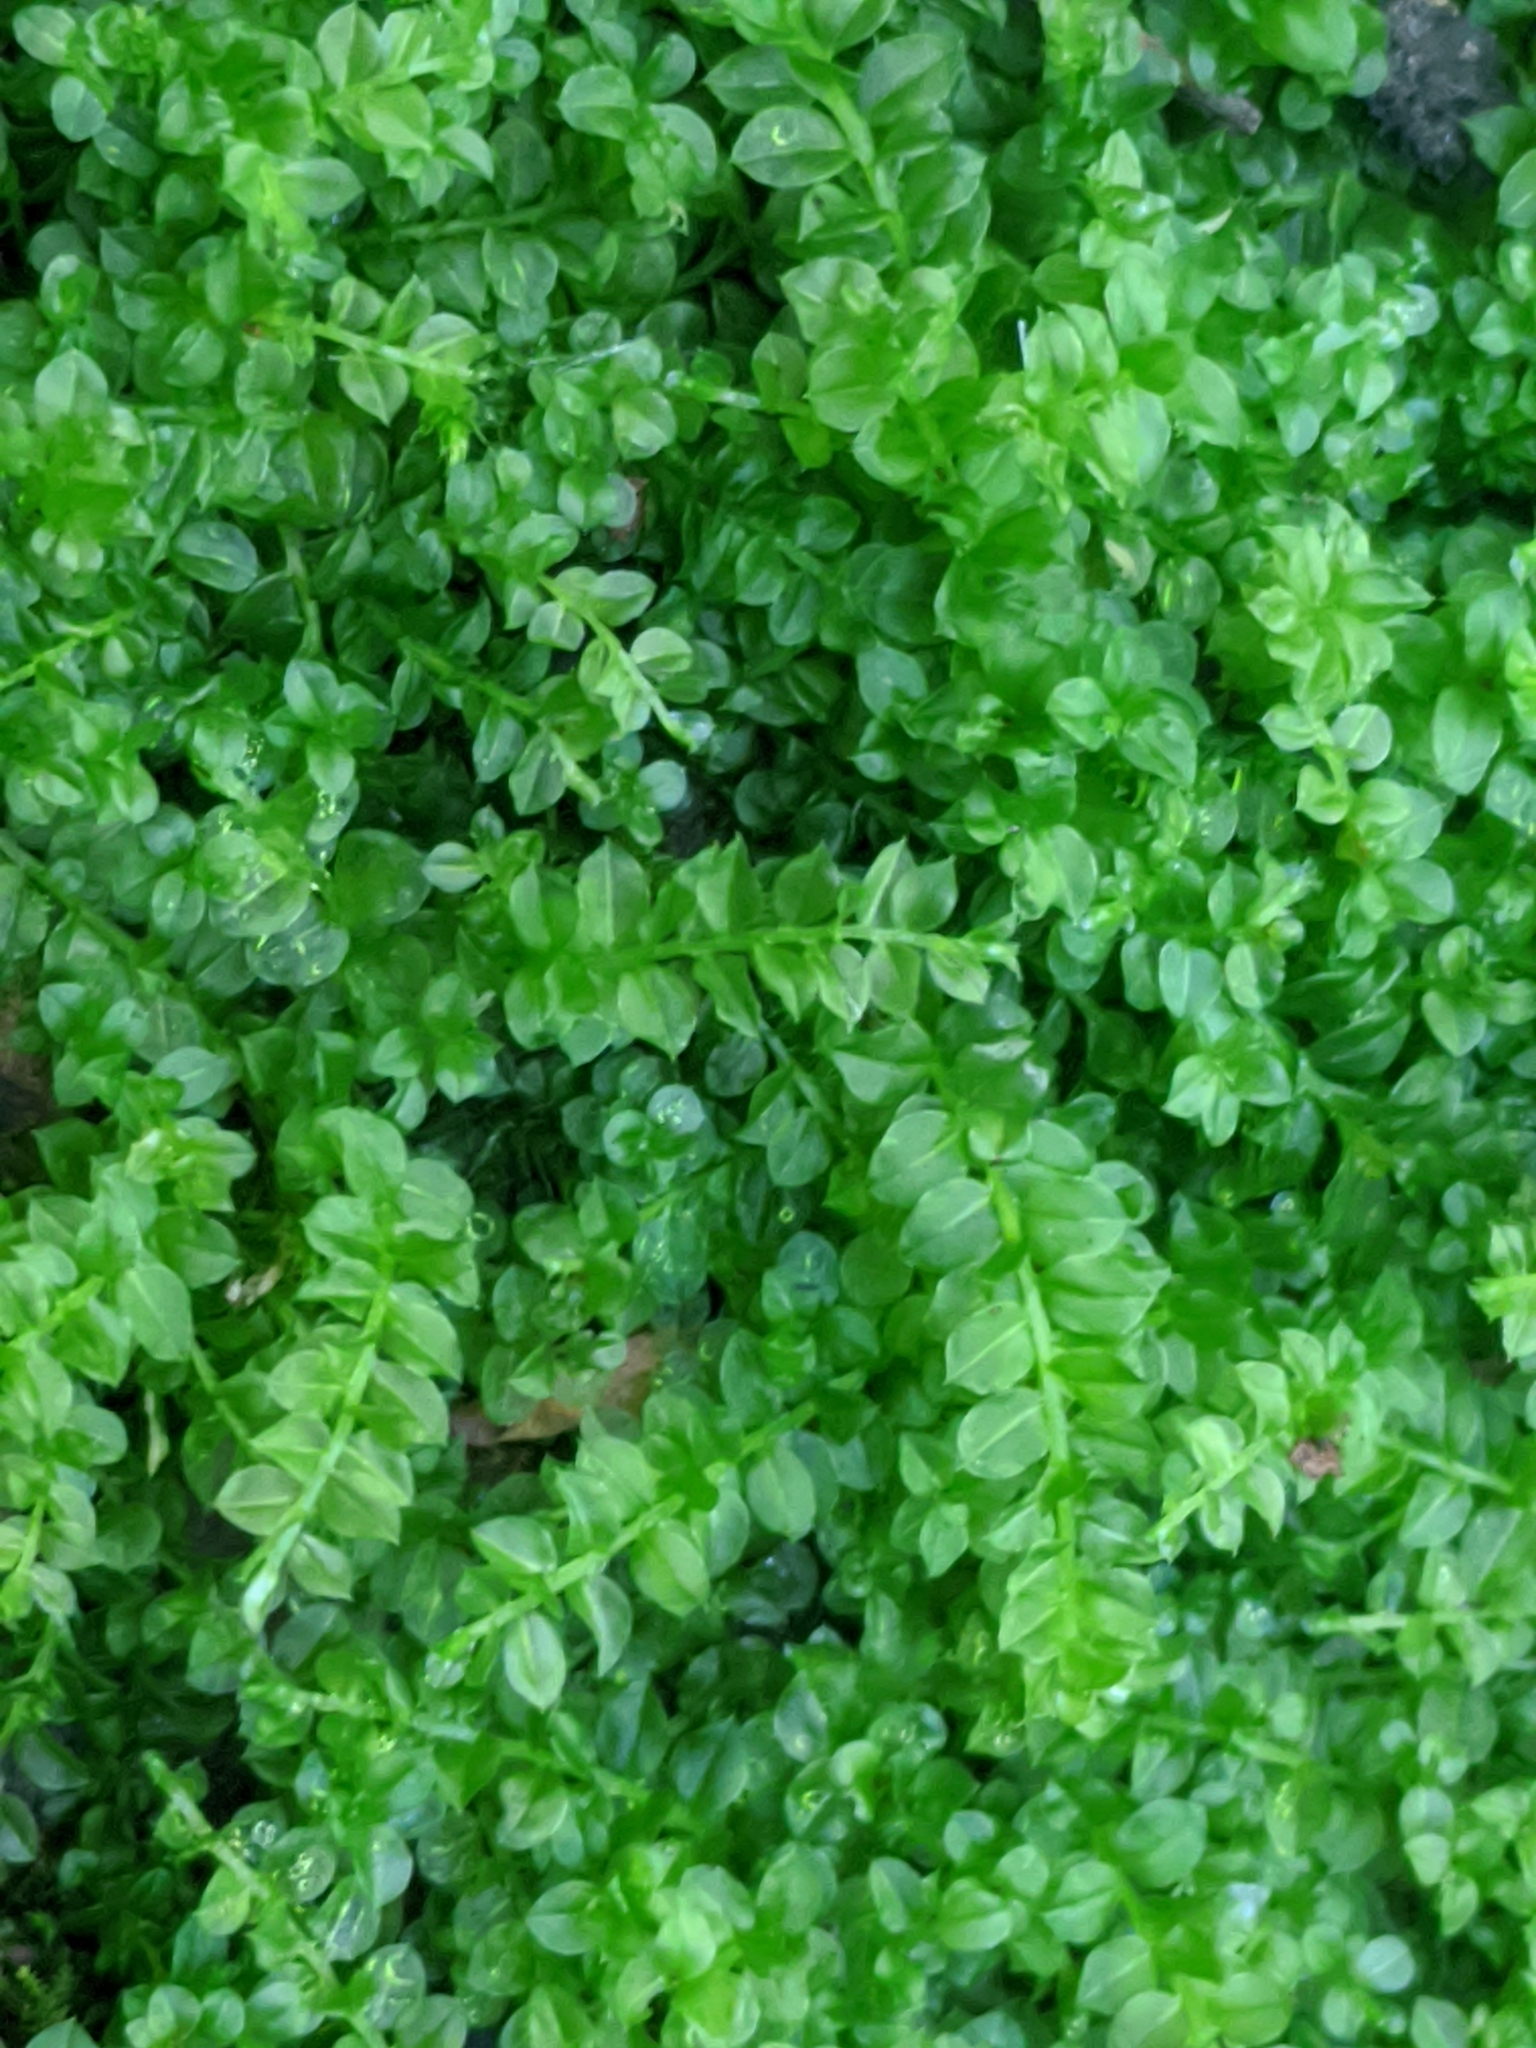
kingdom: Plantae
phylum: Bryophyta
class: Bryopsida
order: Bryales
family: Mniaceae
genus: Plagiomnium
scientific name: Plagiomnium affine
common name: Many-fruited thyme-moss
